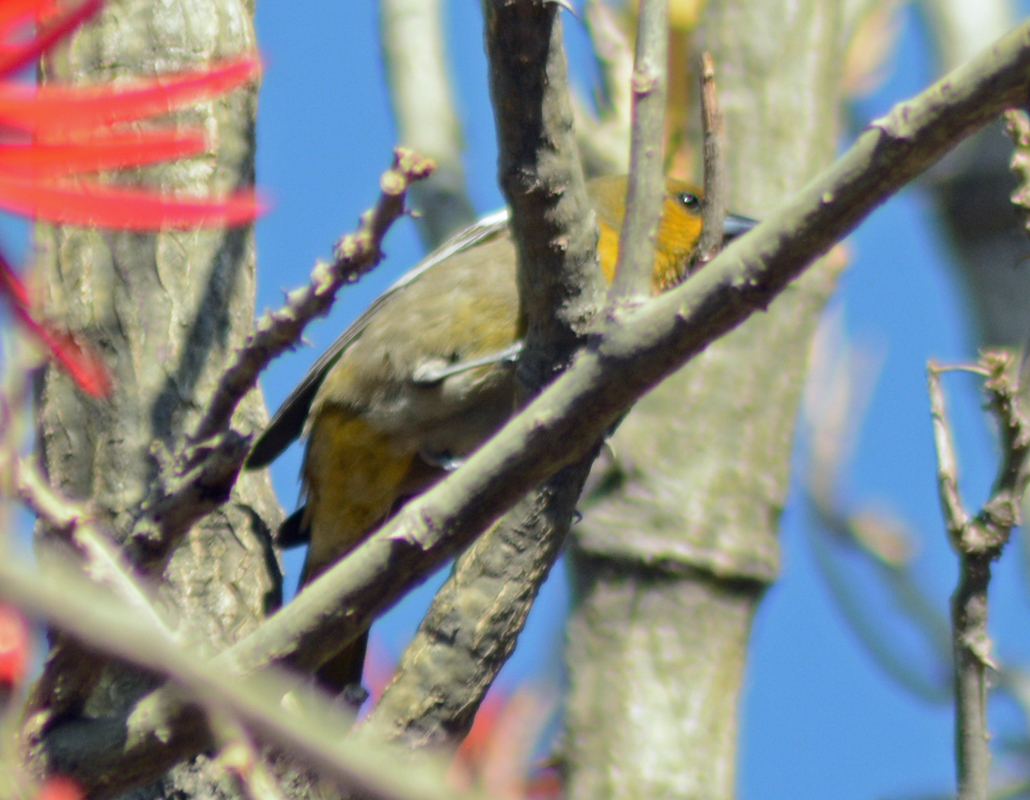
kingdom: Animalia
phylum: Chordata
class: Aves
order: Passeriformes
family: Icteridae
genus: Icterus
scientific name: Icterus abeillei
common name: Black-backed oriole
